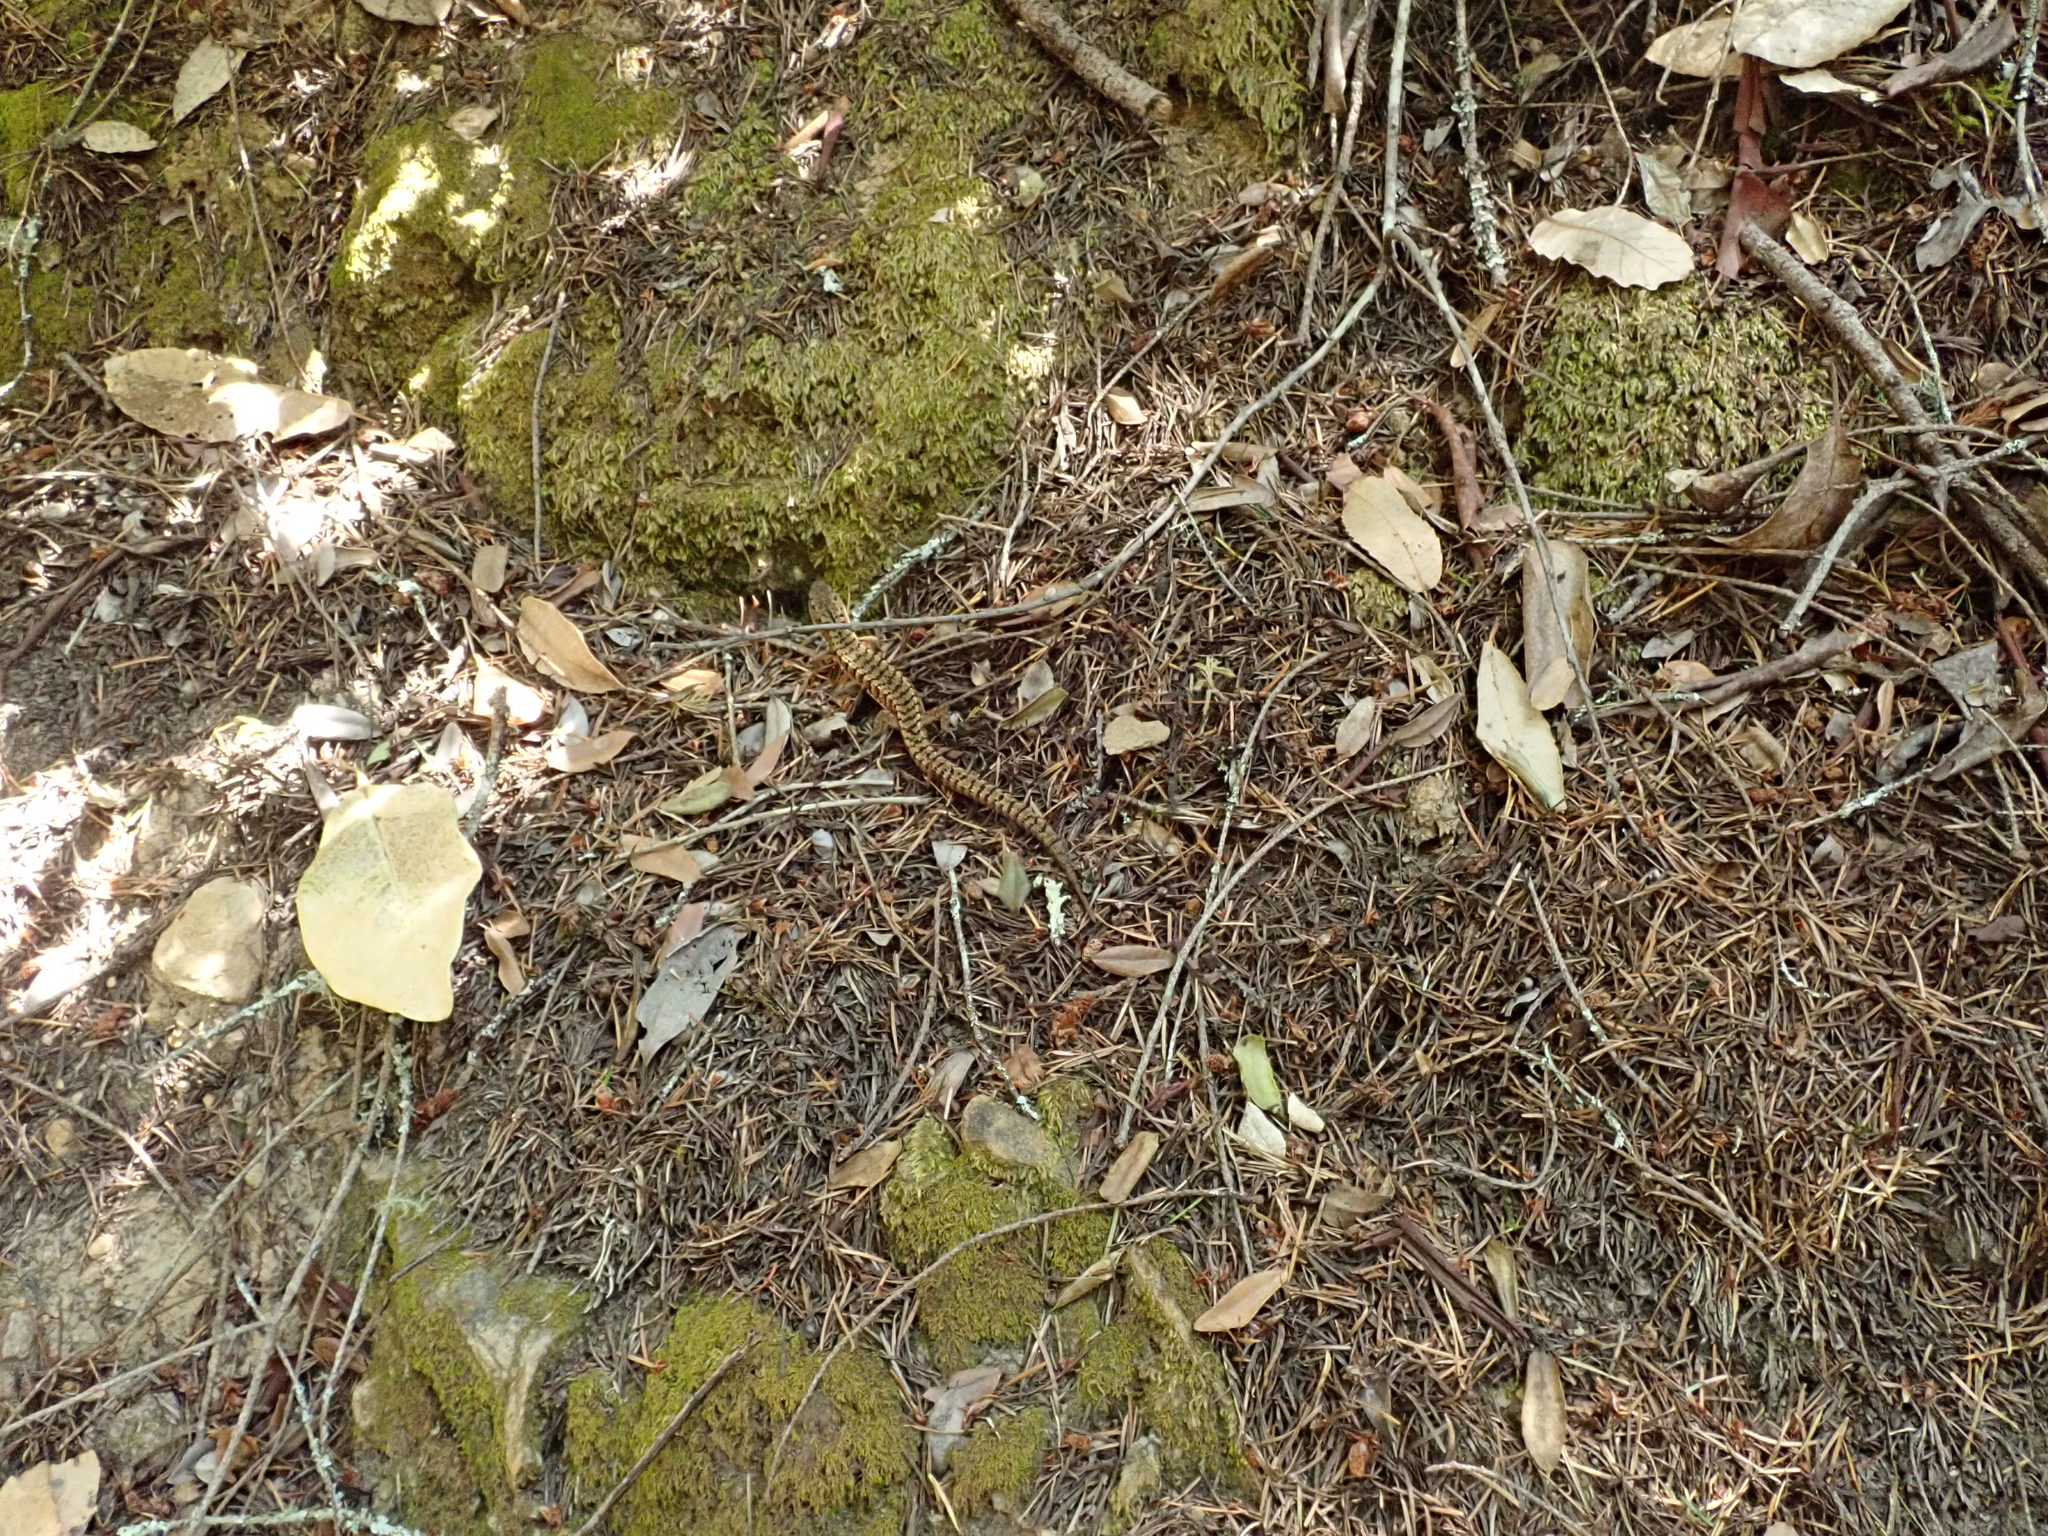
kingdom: Animalia
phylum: Chordata
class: Squamata
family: Anguidae
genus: Elgaria
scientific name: Elgaria coerulea
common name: Northern alligator lizard
